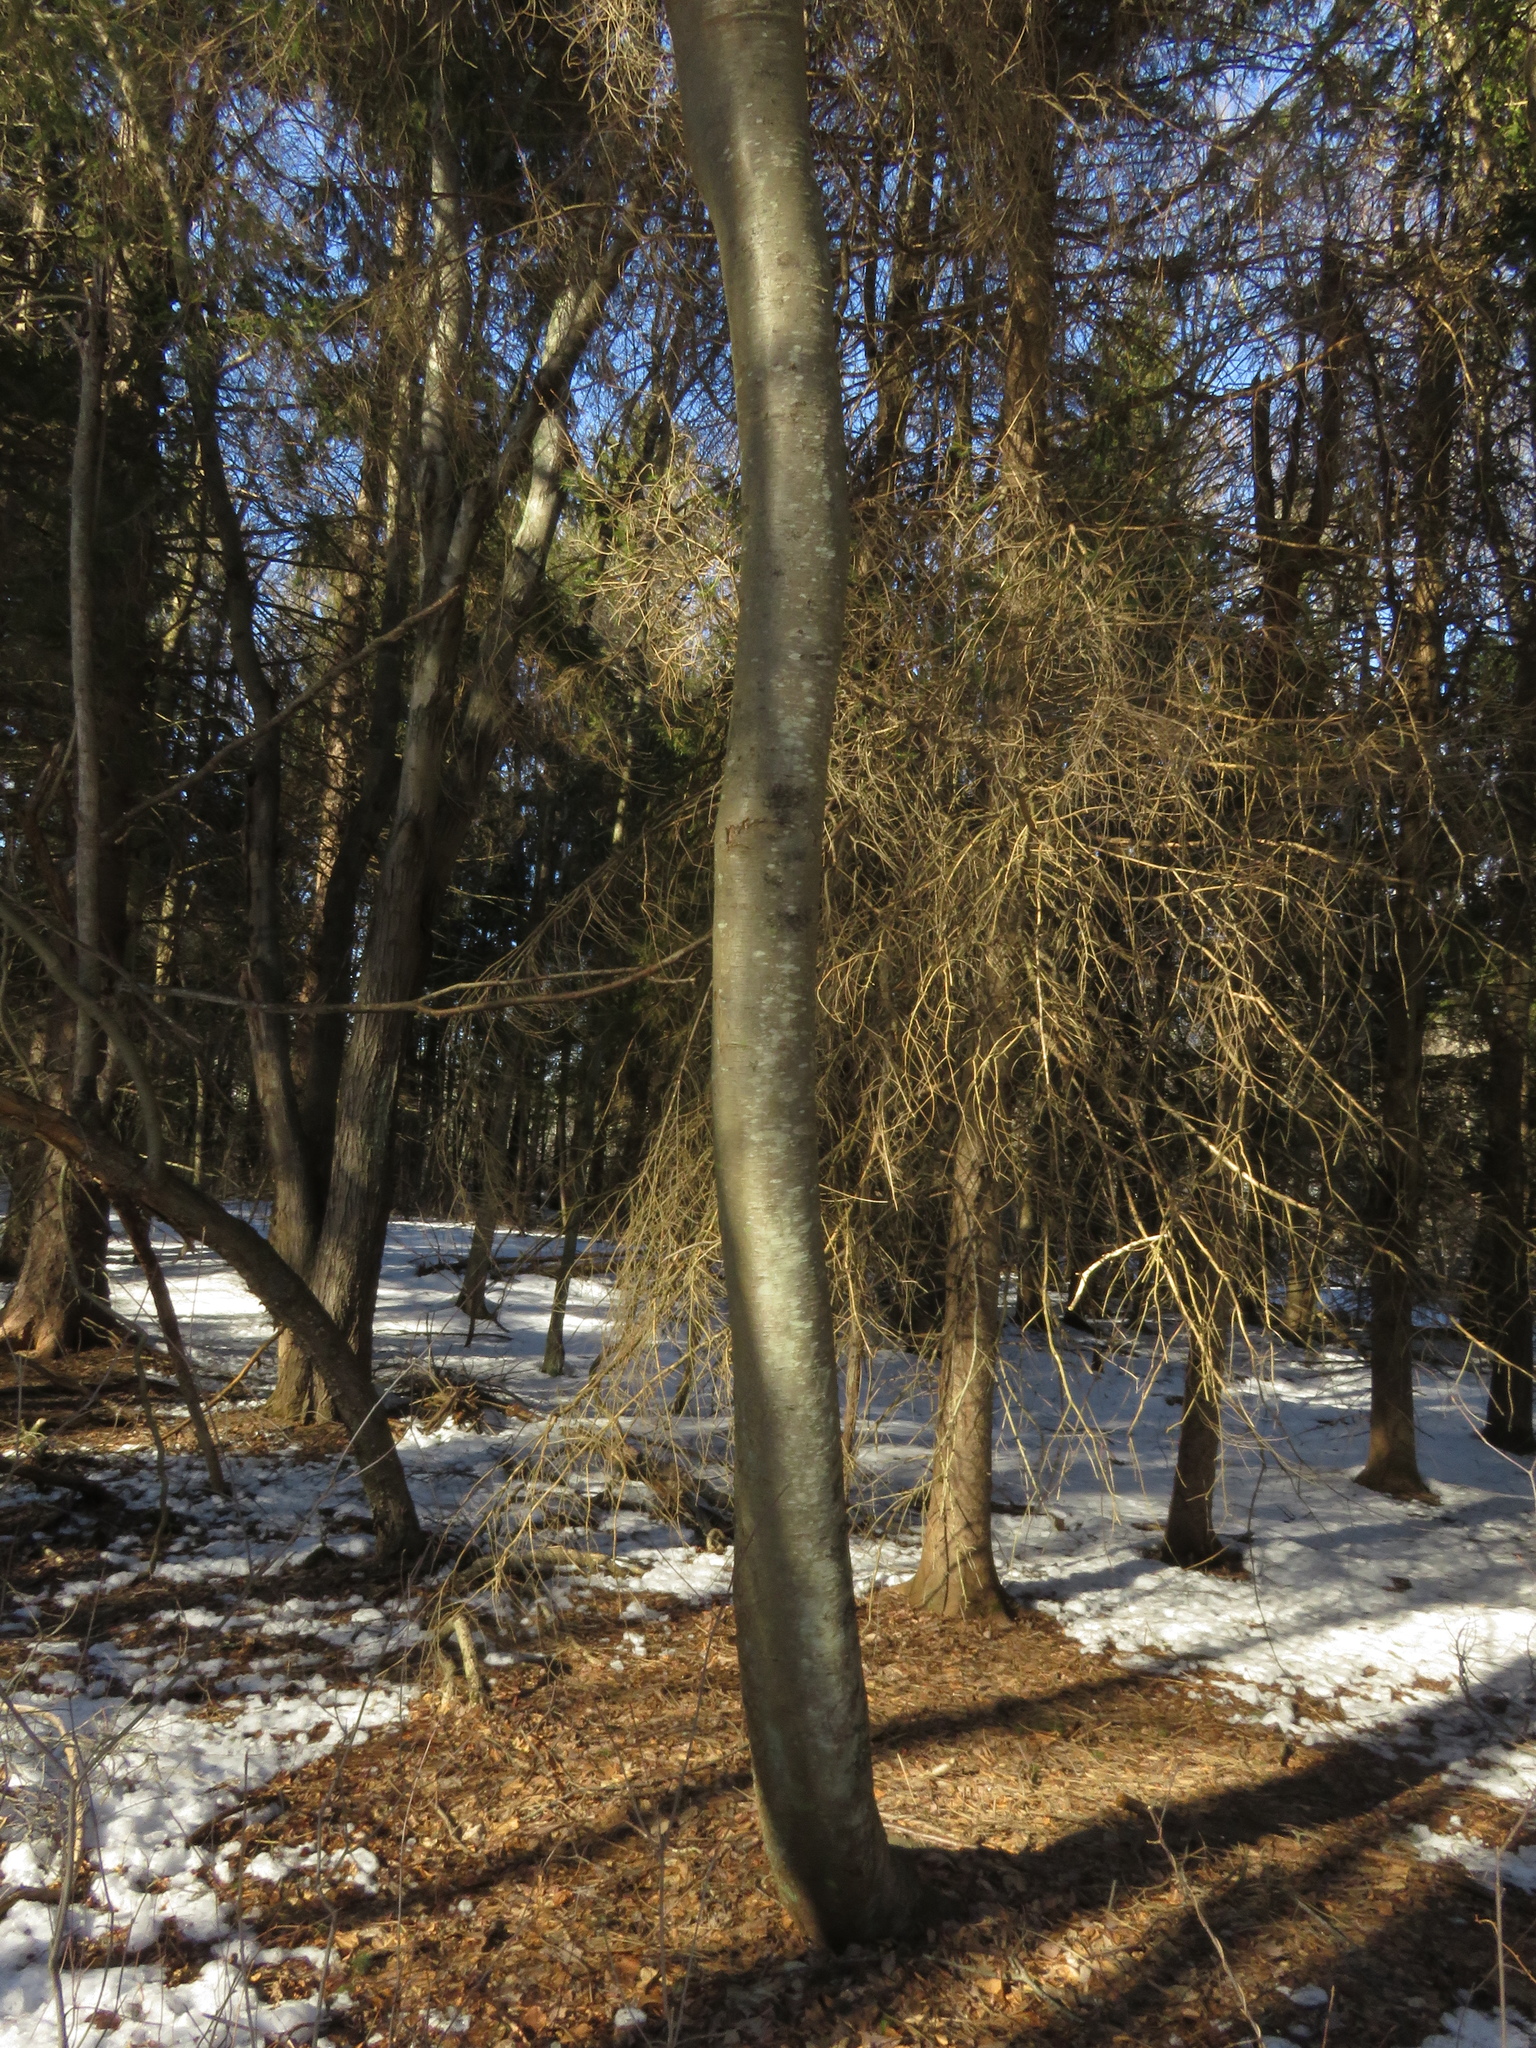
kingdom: Plantae
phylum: Tracheophyta
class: Magnoliopsida
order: Fagales
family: Betulaceae
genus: Betula
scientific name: Betula lenta
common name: Black birch
